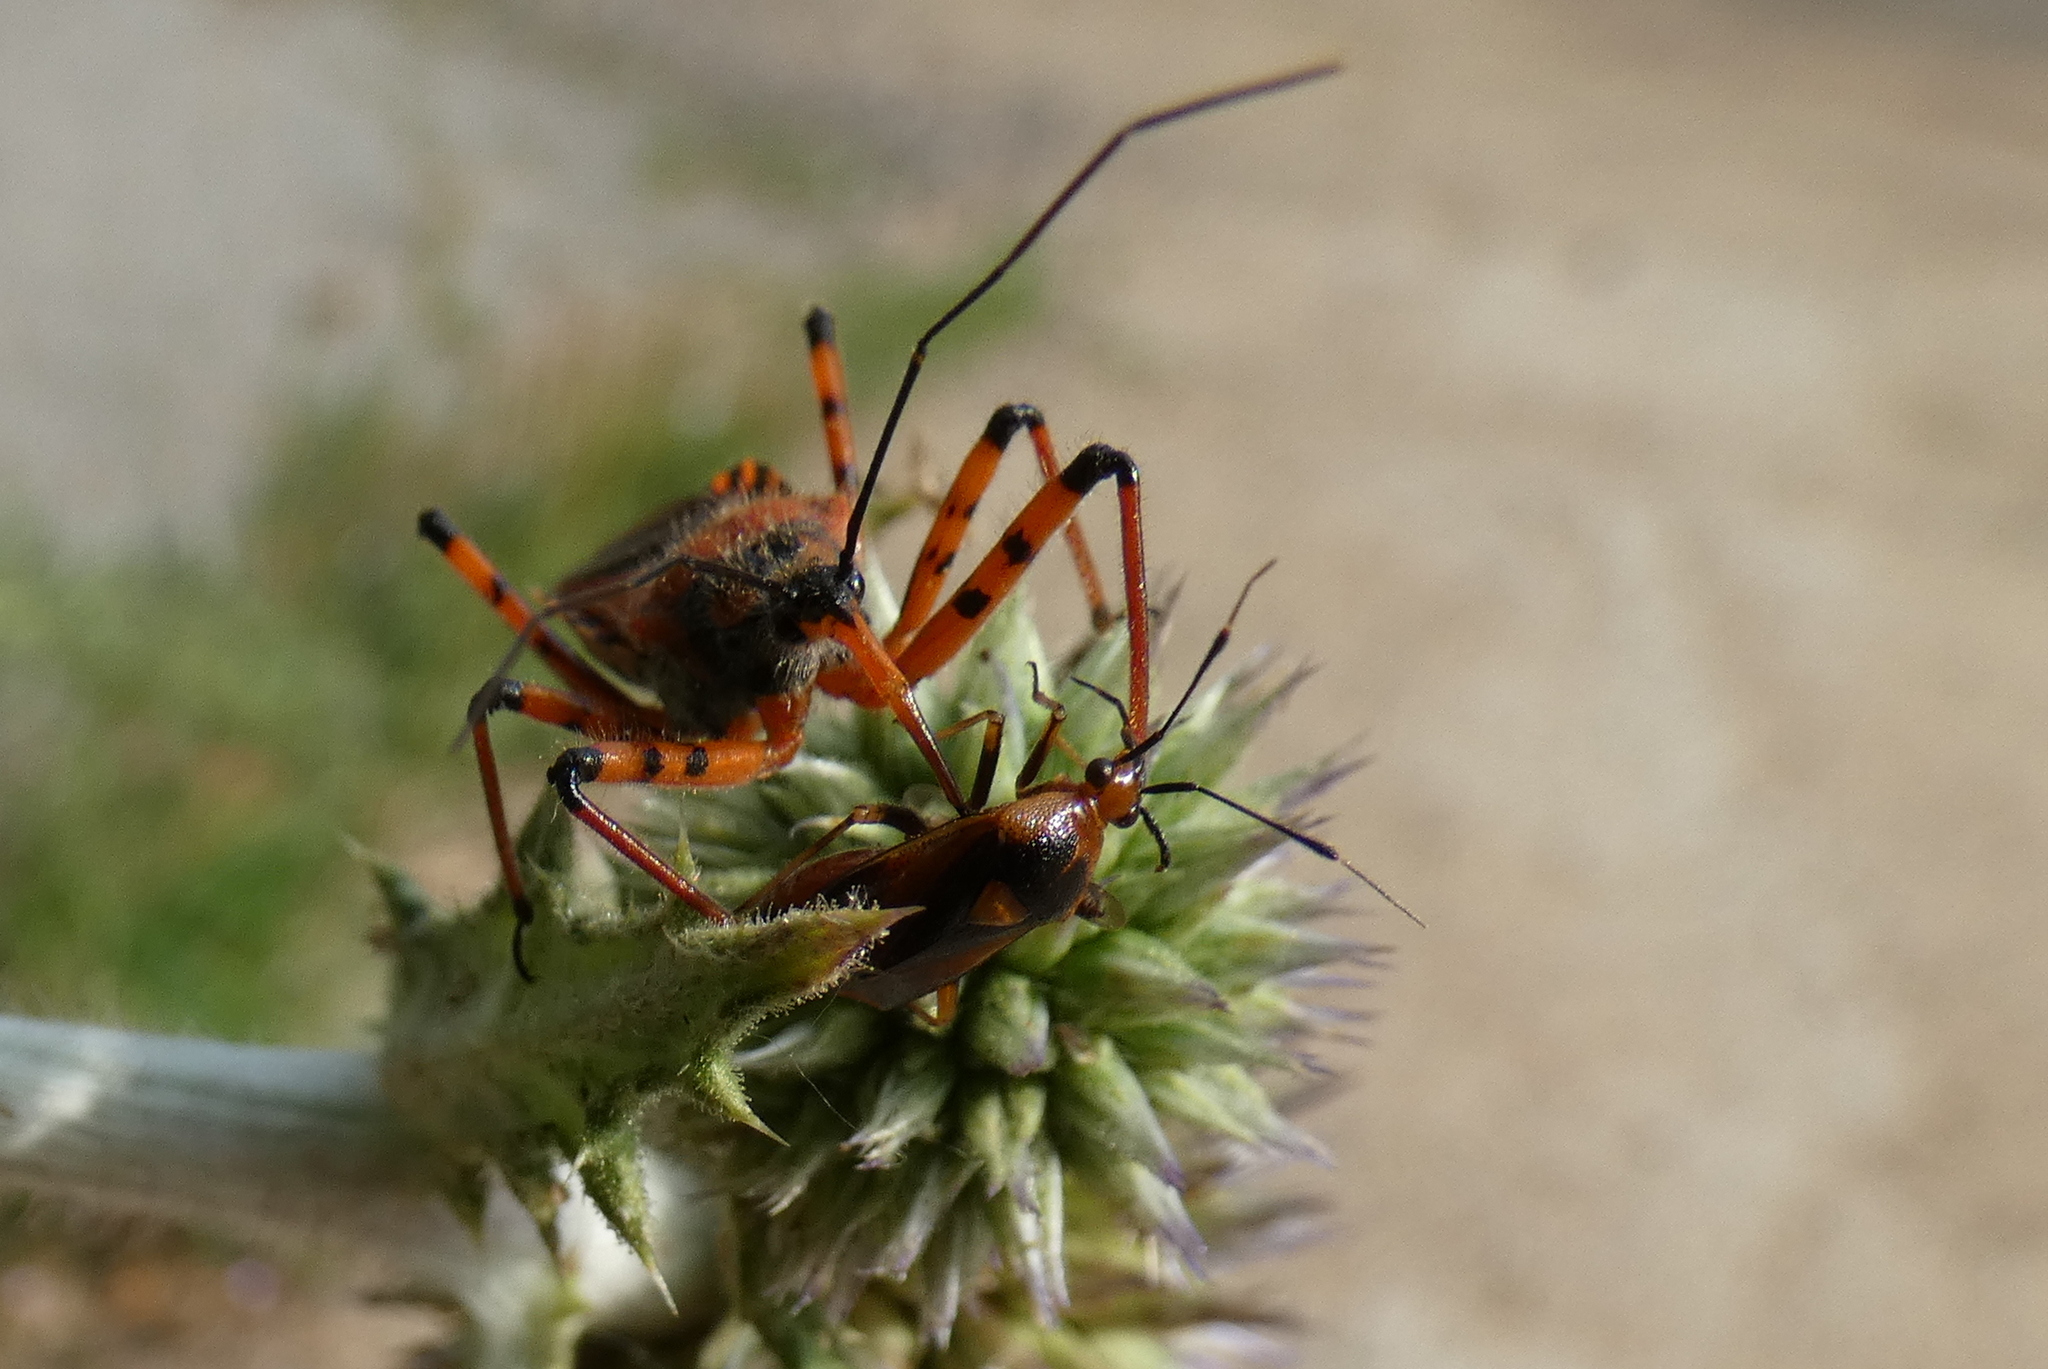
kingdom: Animalia
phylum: Arthropoda
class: Insecta
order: Hemiptera
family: Miridae
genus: Deraeocoris
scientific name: Deraeocoris ruber
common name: Plant bug
